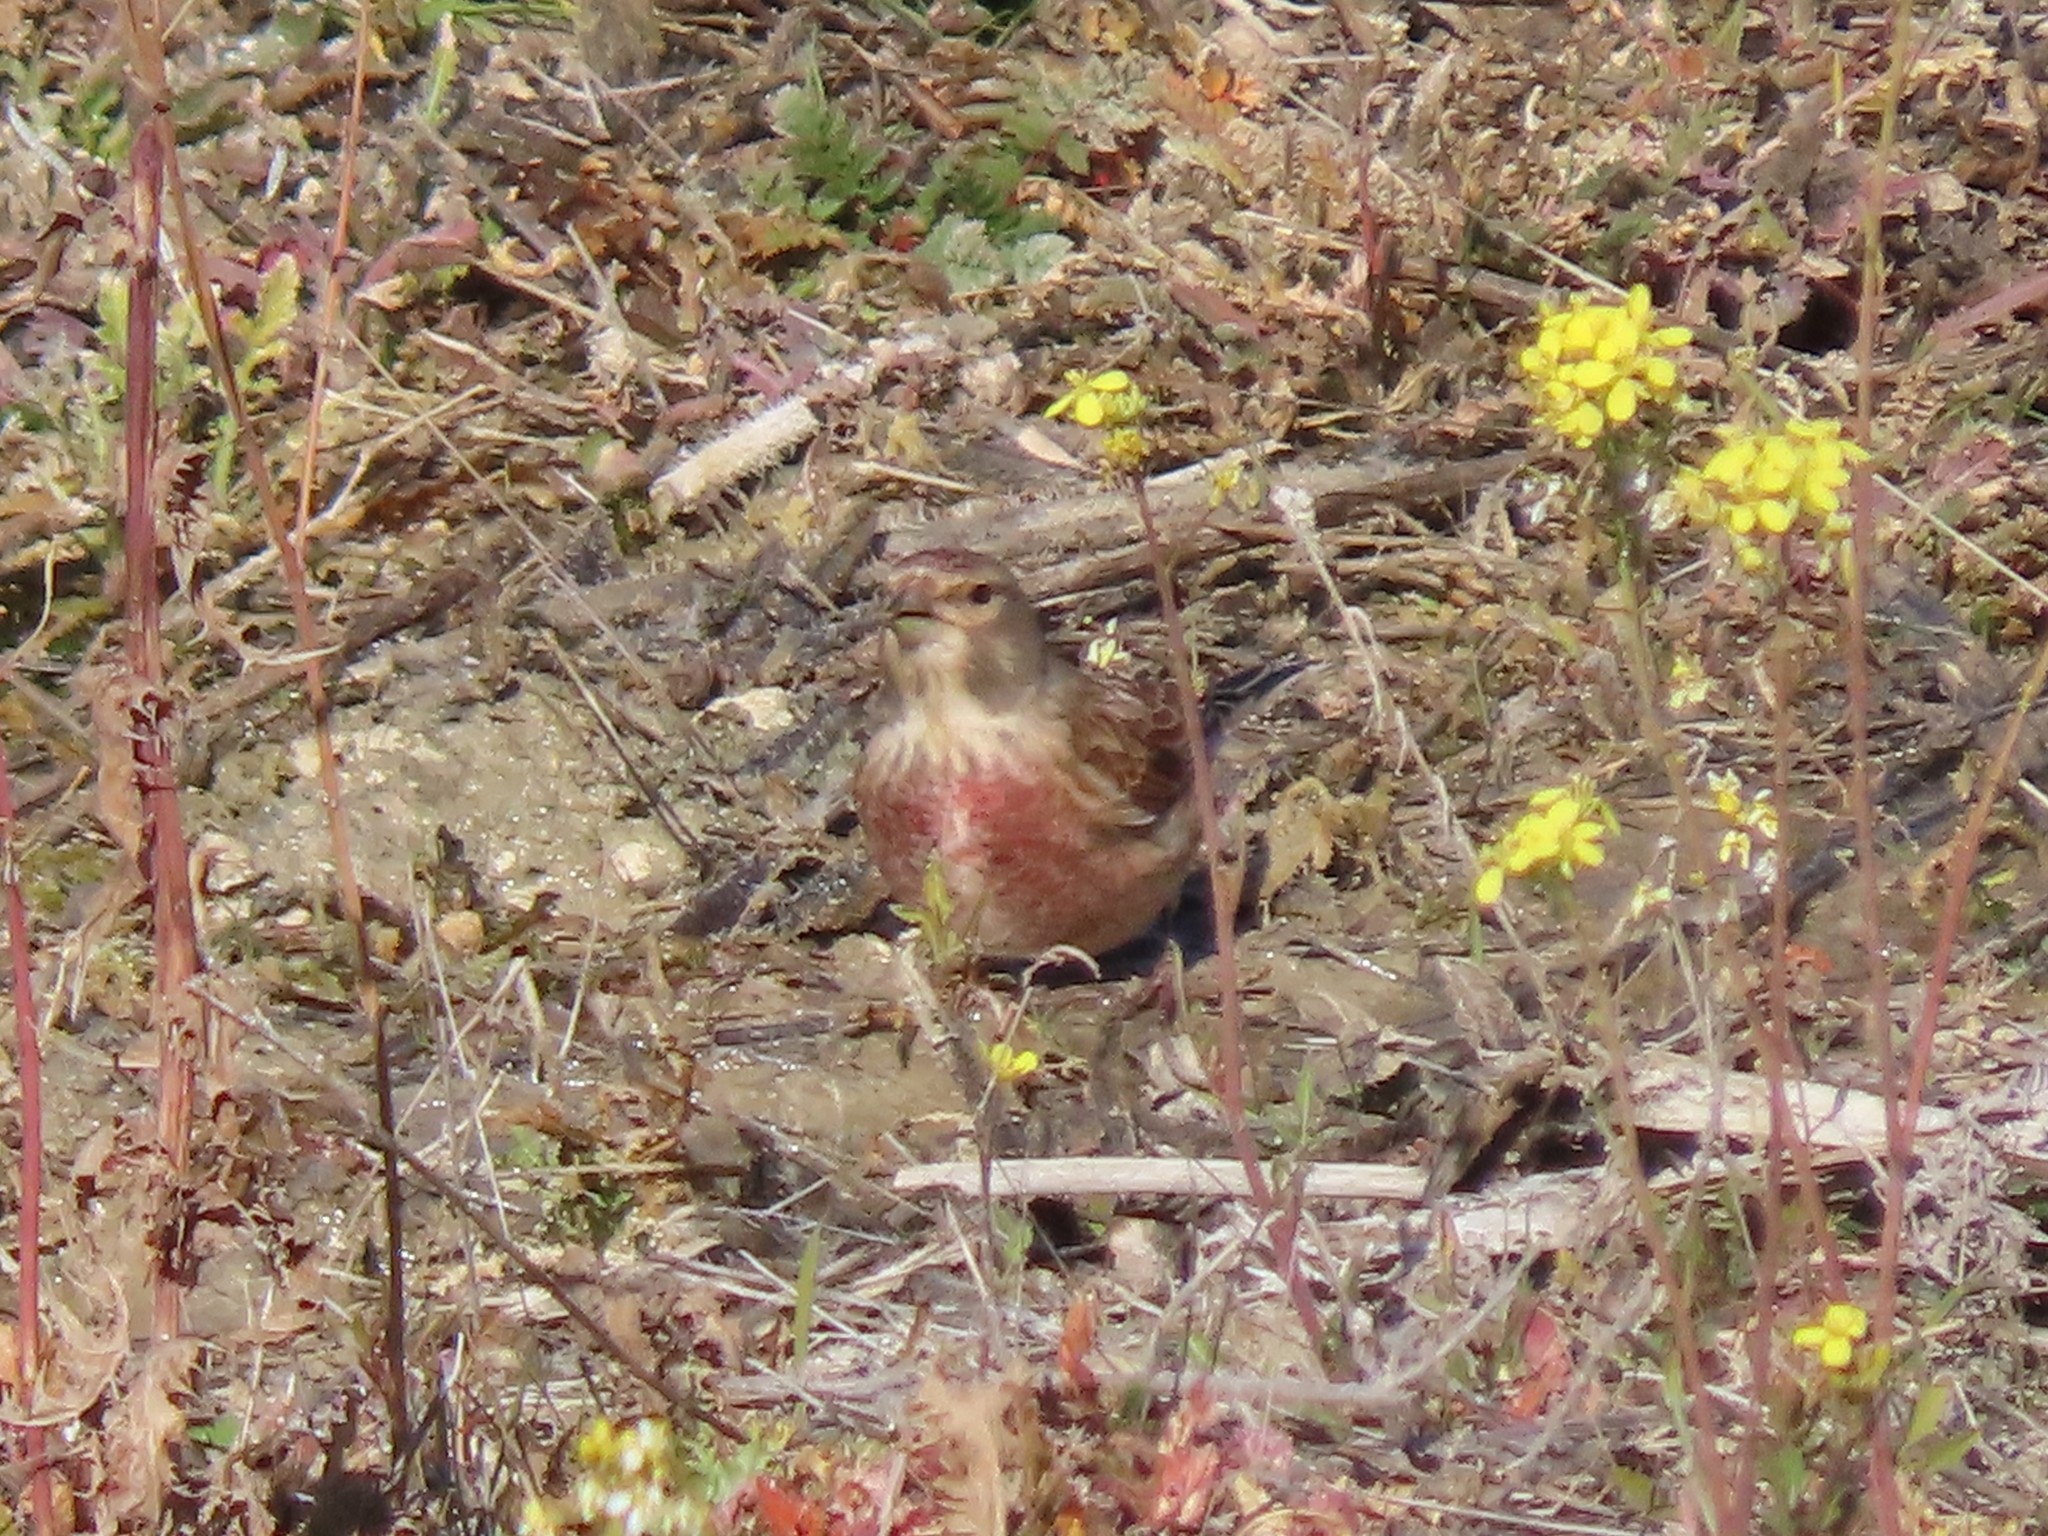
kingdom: Animalia
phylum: Chordata
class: Aves
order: Passeriformes
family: Fringillidae
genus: Linaria
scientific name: Linaria cannabina
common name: Common linnet
